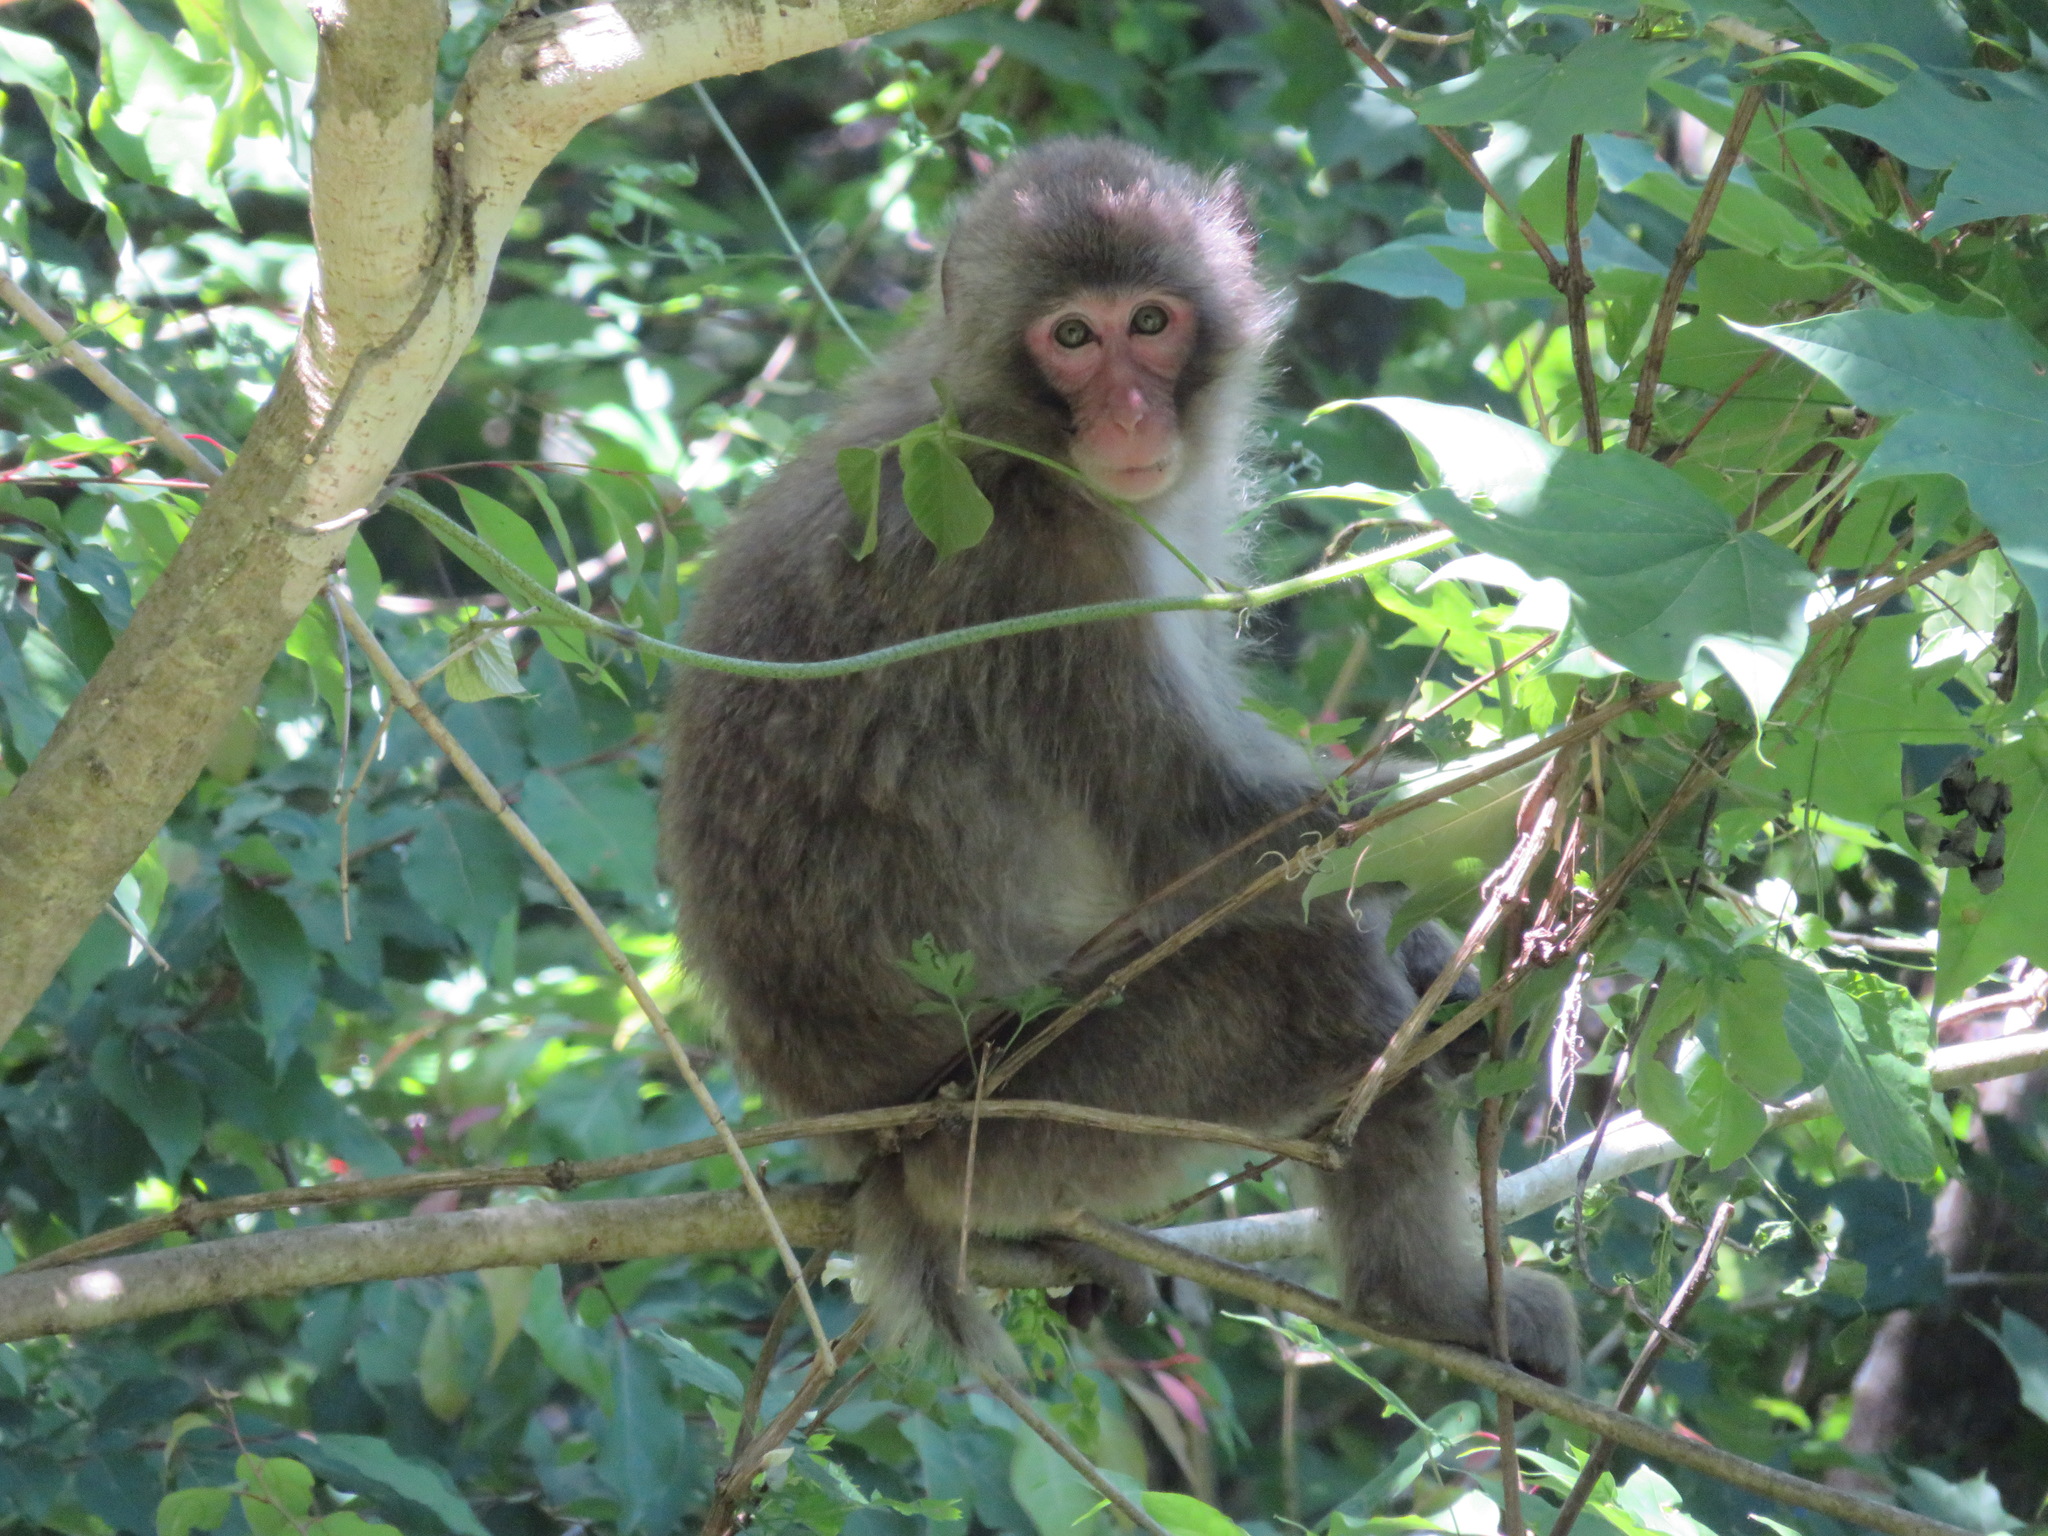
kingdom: Animalia
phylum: Chordata
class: Mammalia
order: Primates
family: Cercopithecidae
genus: Macaca
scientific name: Macaca fuscata
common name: Japanese macaque
